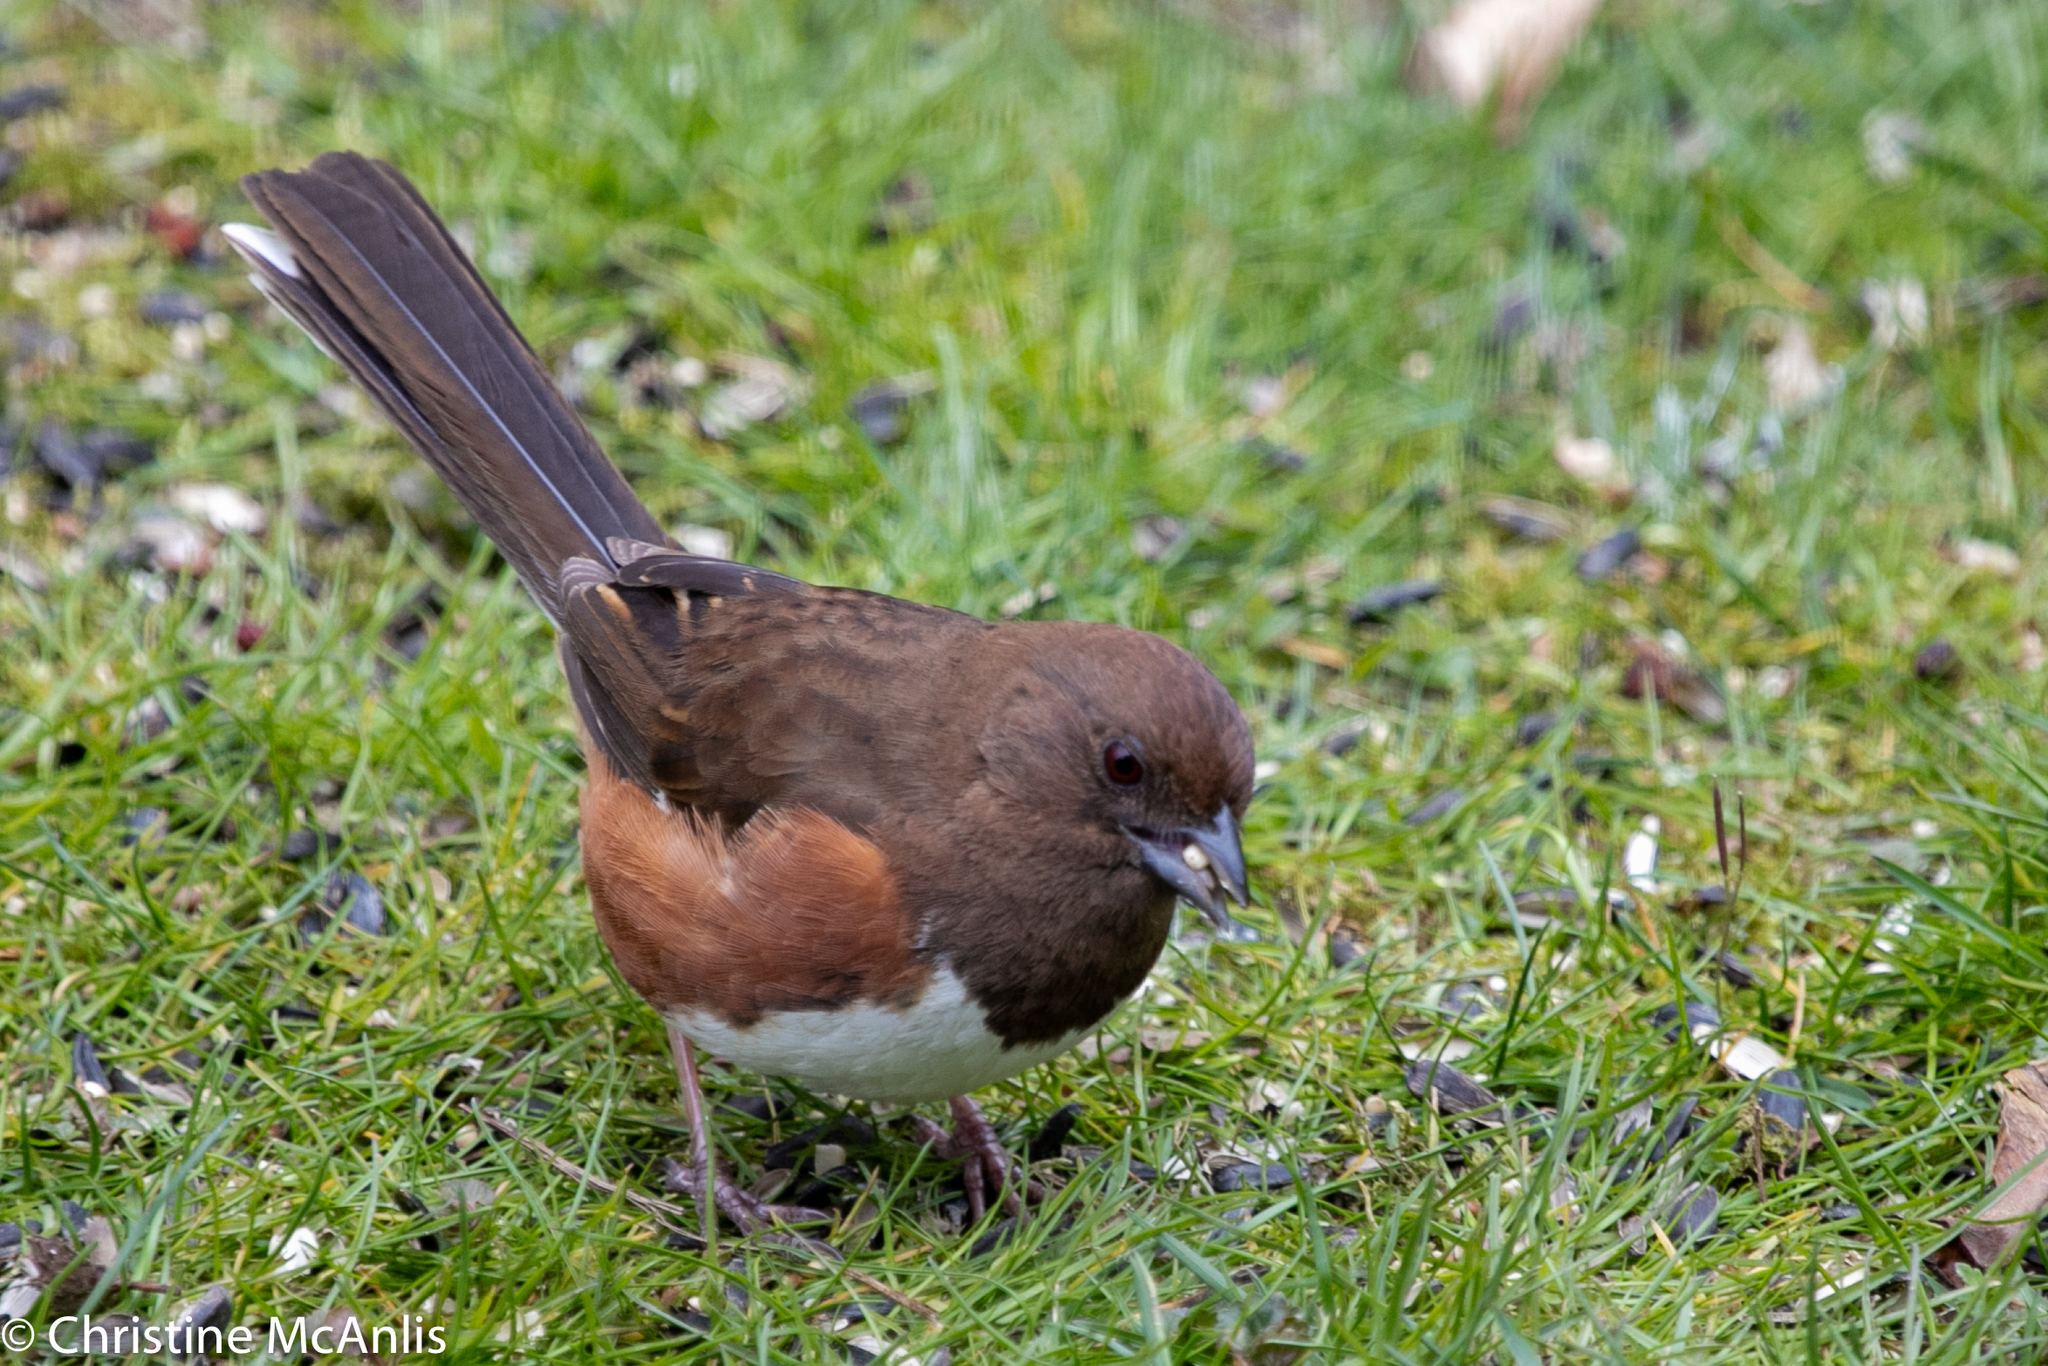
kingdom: Animalia
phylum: Chordata
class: Aves
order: Passeriformes
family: Passerellidae
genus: Pipilo
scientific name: Pipilo erythrophthalmus
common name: Eastern towhee
